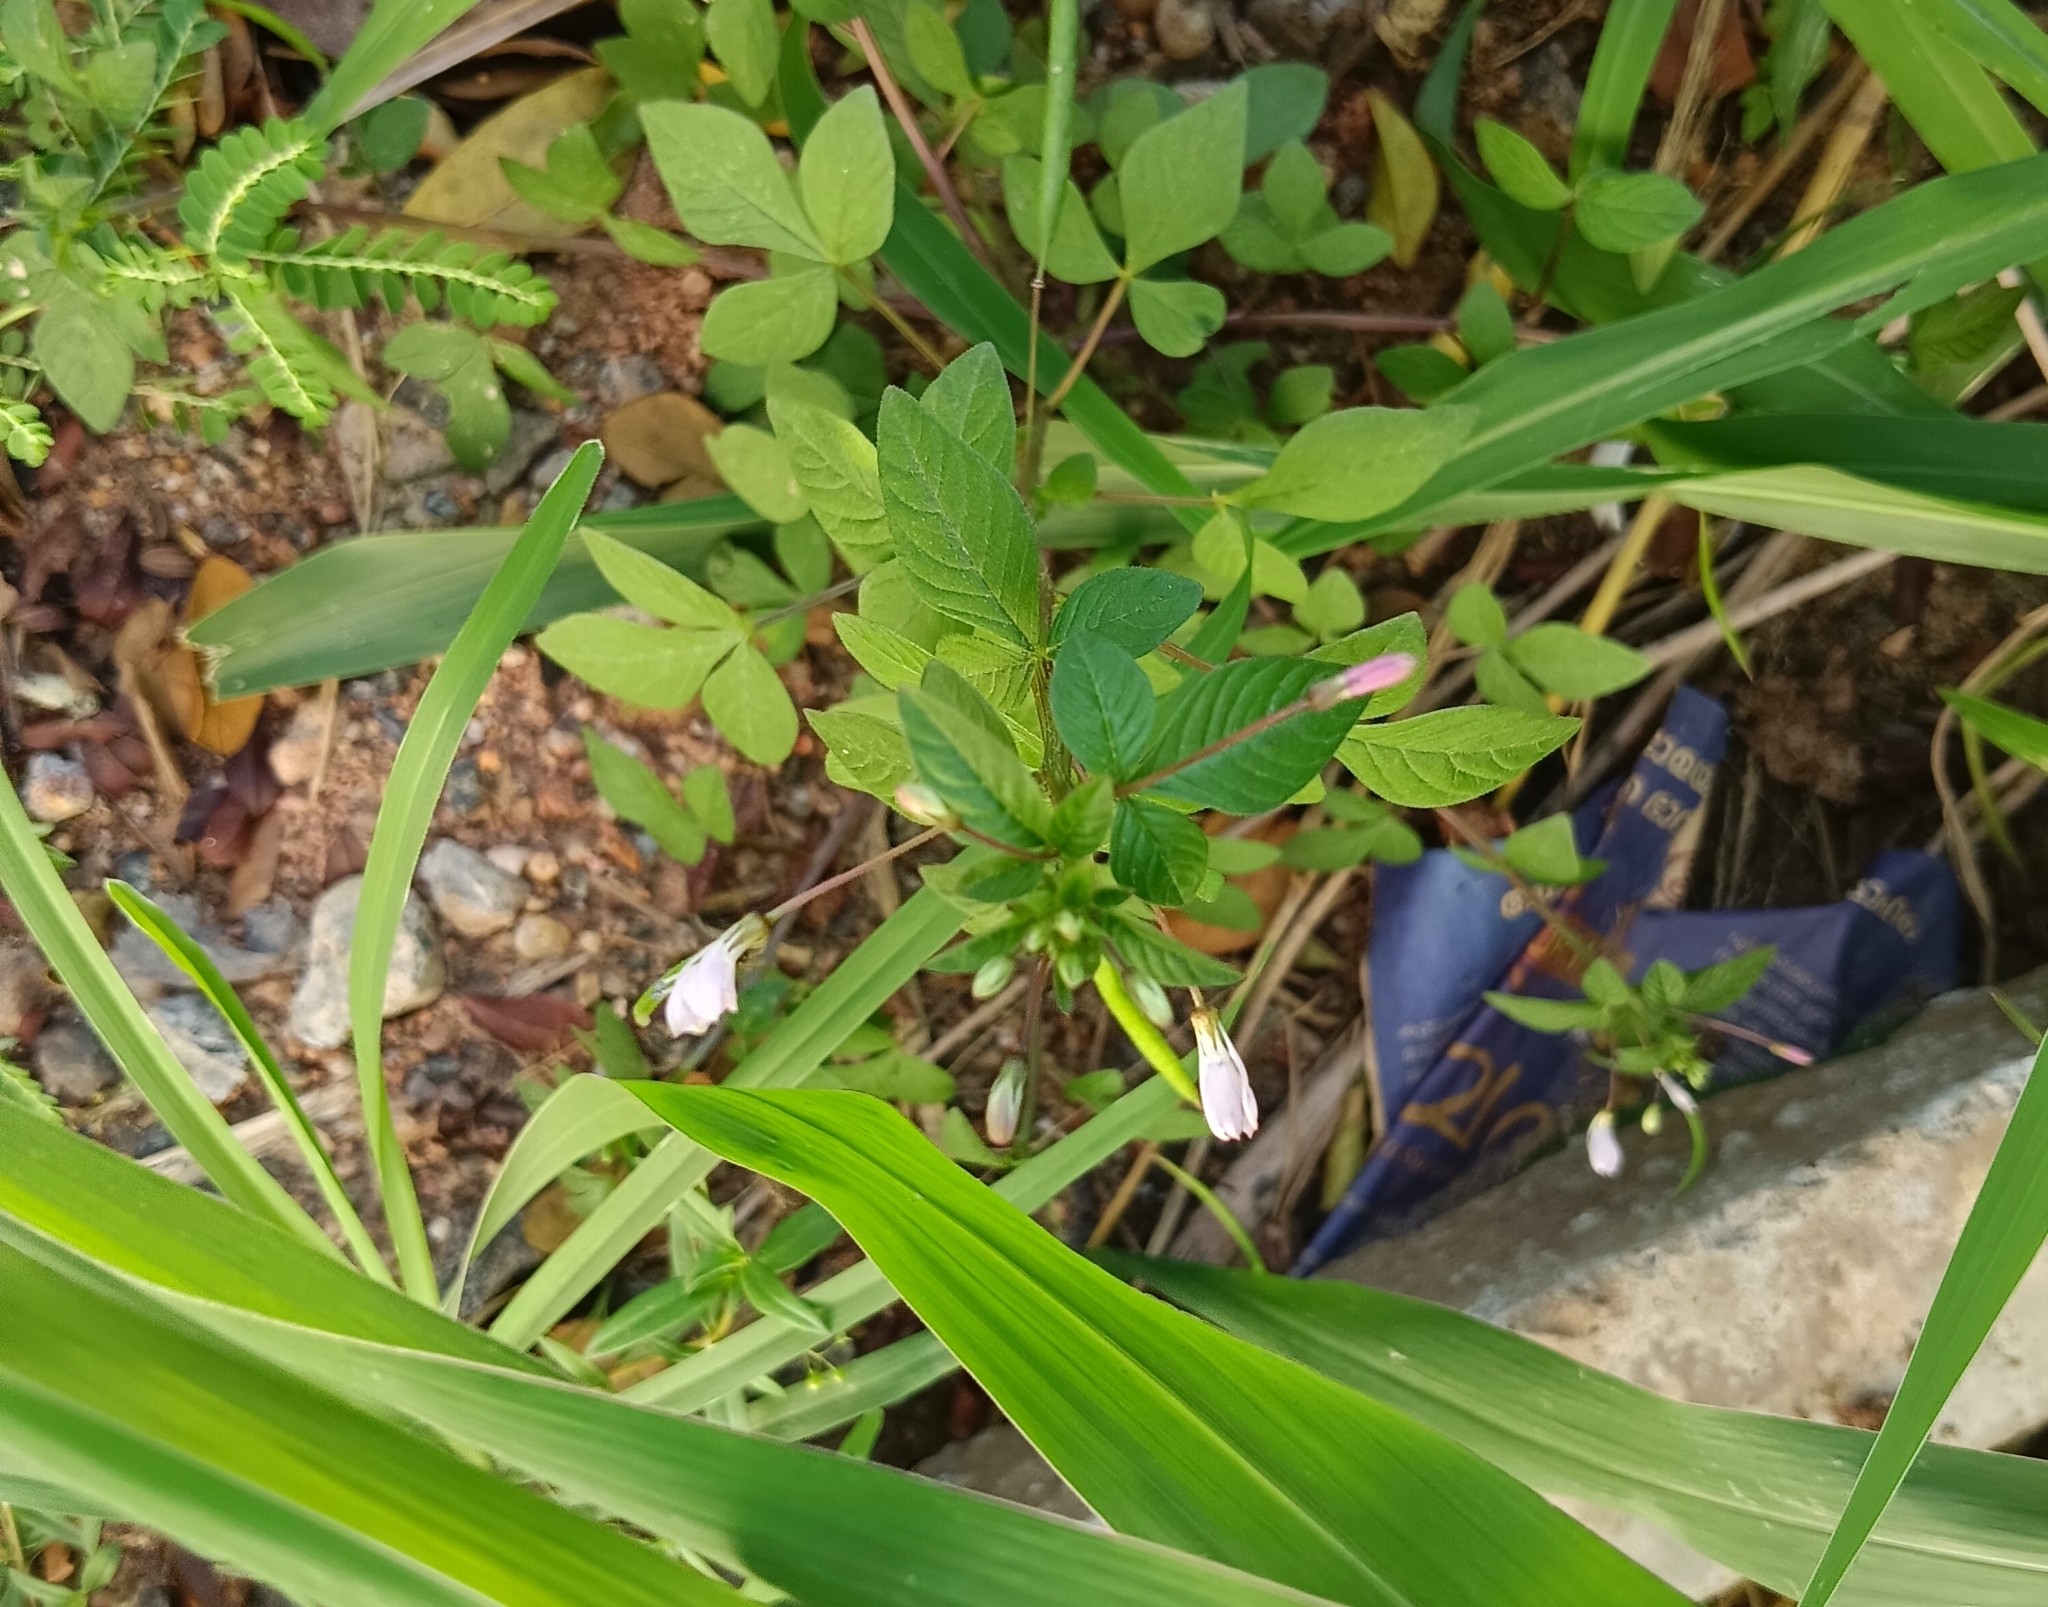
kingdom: Plantae
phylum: Tracheophyta
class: Magnoliopsida
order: Brassicales
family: Cleomaceae
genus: Sieruela
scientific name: Sieruela rutidosperma
